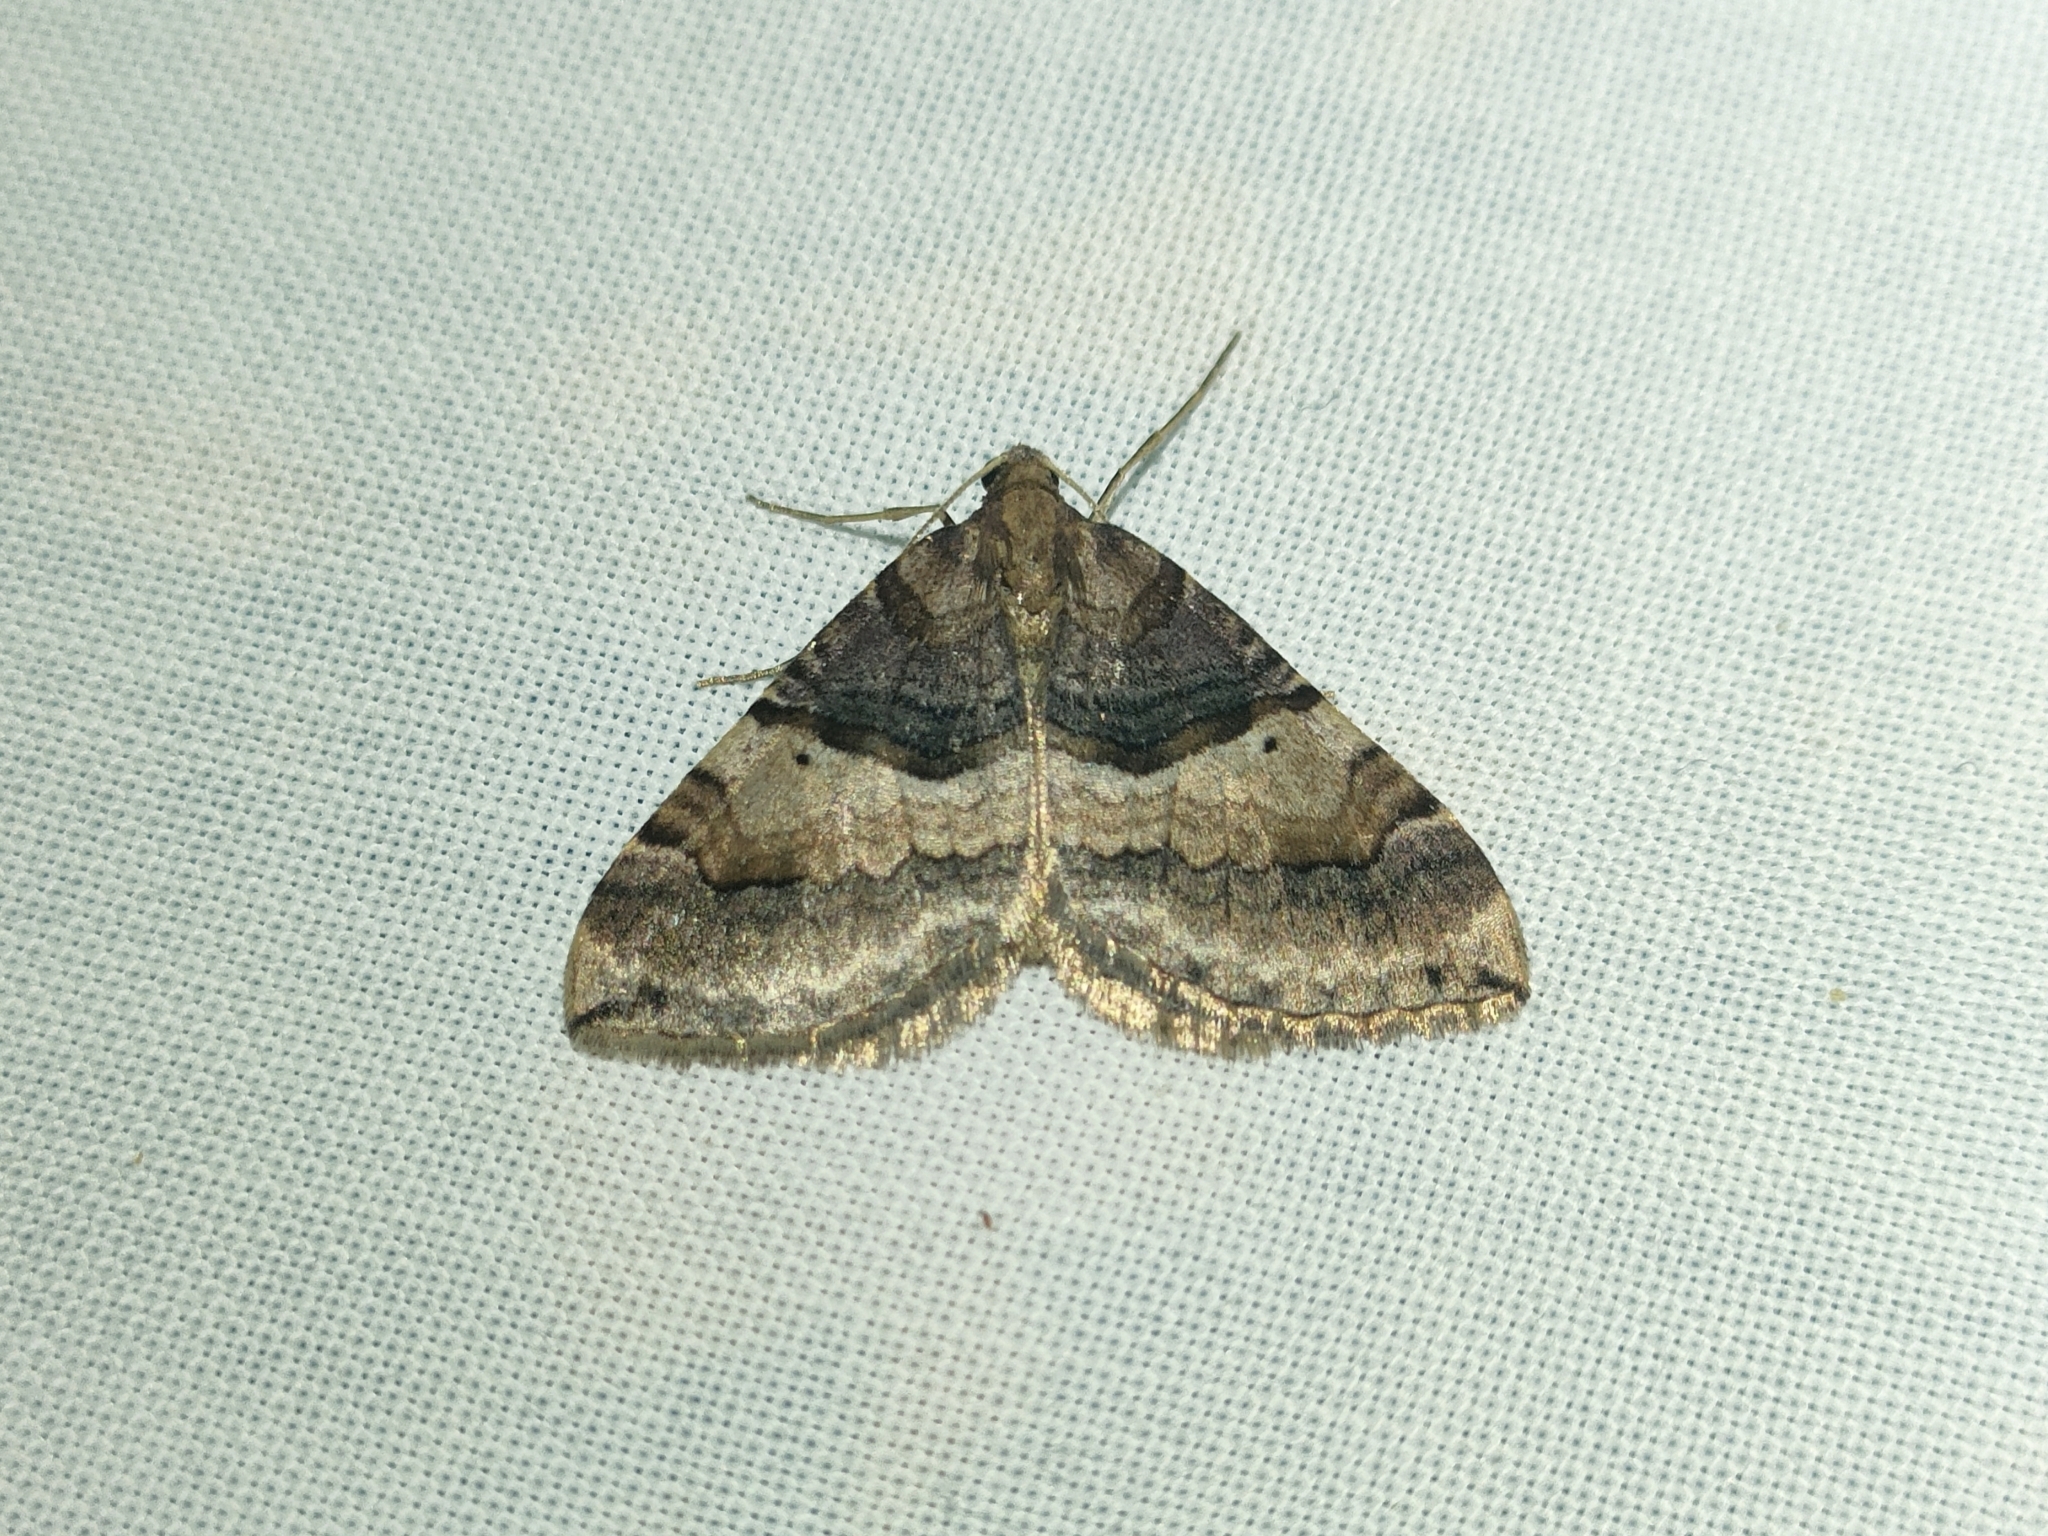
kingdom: Animalia
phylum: Arthropoda
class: Insecta
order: Lepidoptera
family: Geometridae
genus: Antilurga
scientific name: Antilurga alhambrata
